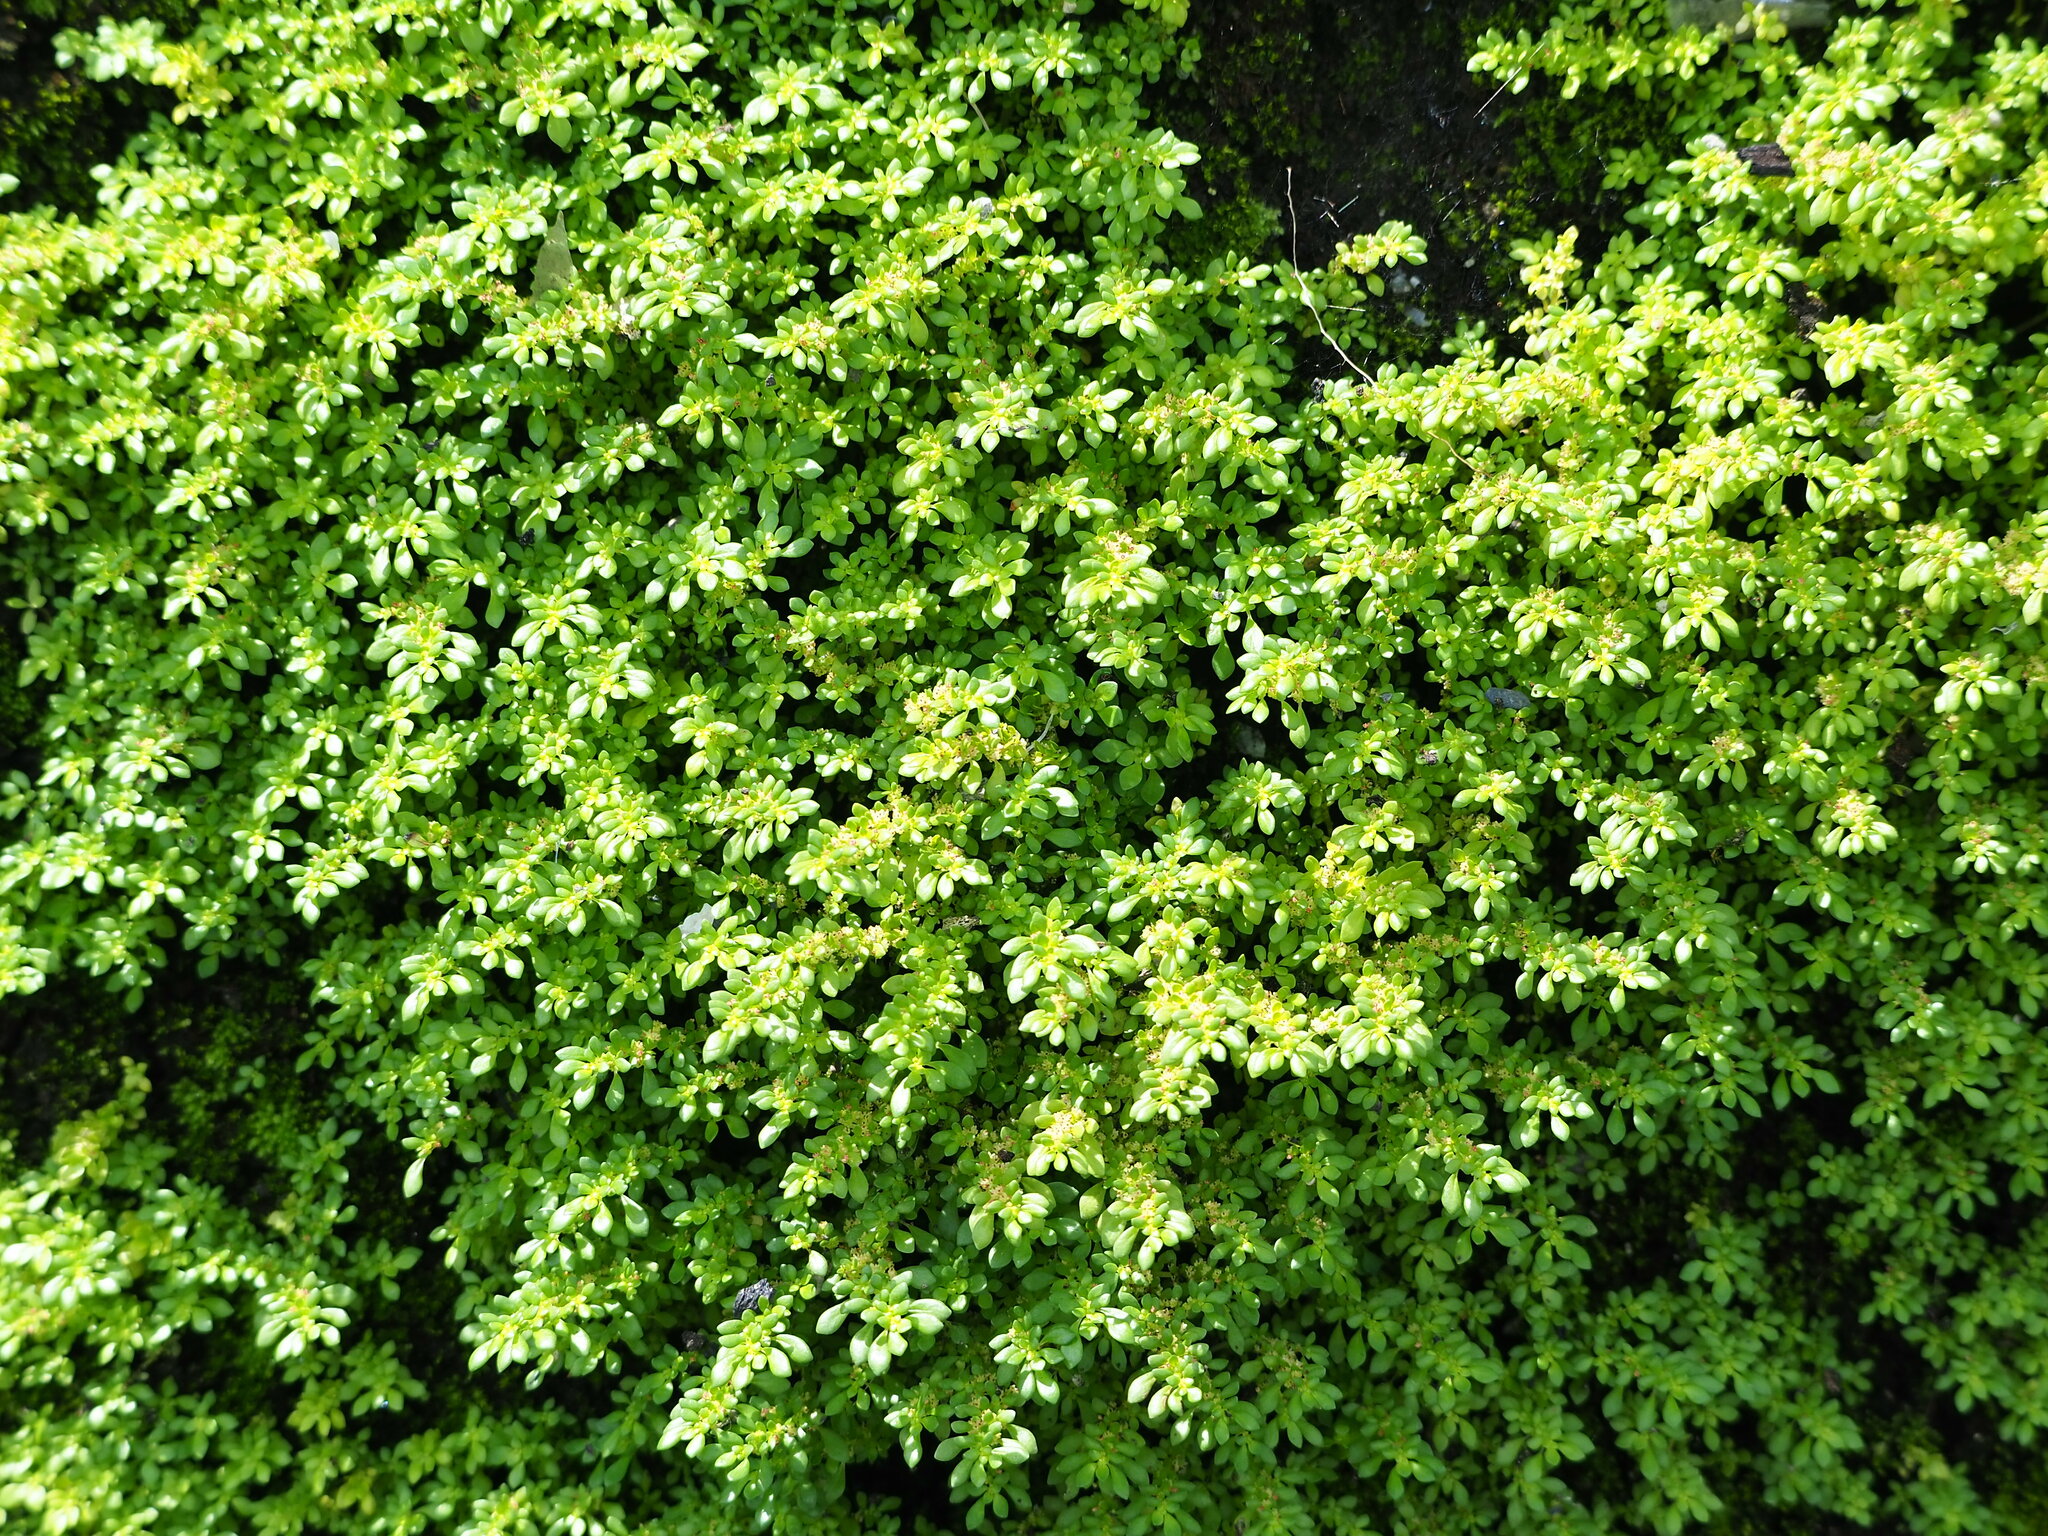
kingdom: Plantae
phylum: Tracheophyta
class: Magnoliopsida
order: Rosales
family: Urticaceae
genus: Pilea
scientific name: Pilea microphylla
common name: Artillery-plant
